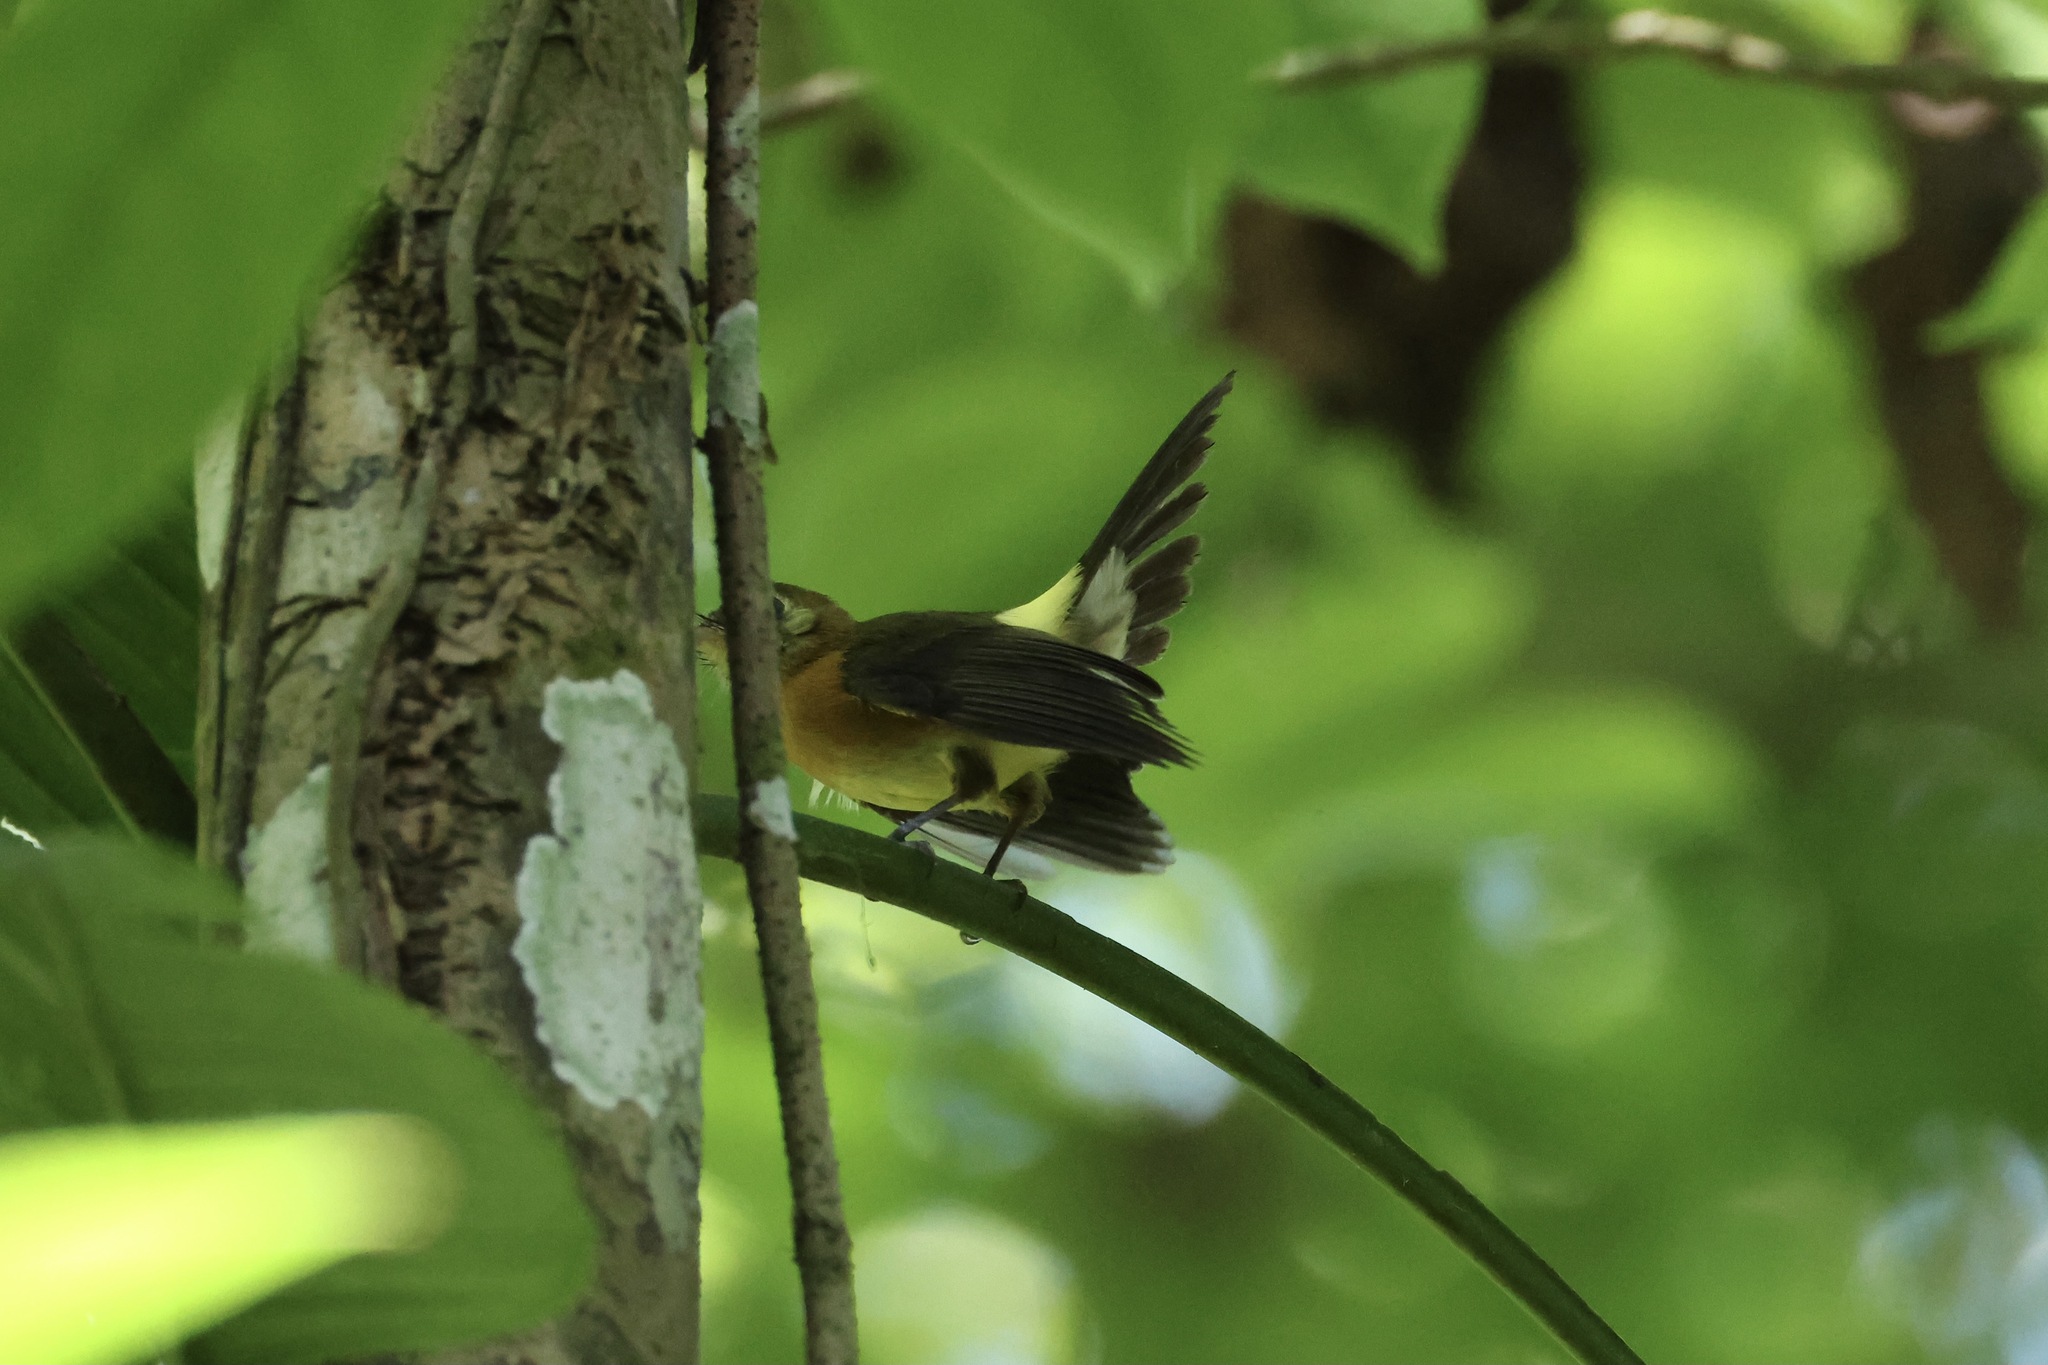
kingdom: Animalia
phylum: Chordata
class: Aves
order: Passeriformes
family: Tyrannidae
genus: Myiobius
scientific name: Myiobius barbatus
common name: Whiskered myiobius
